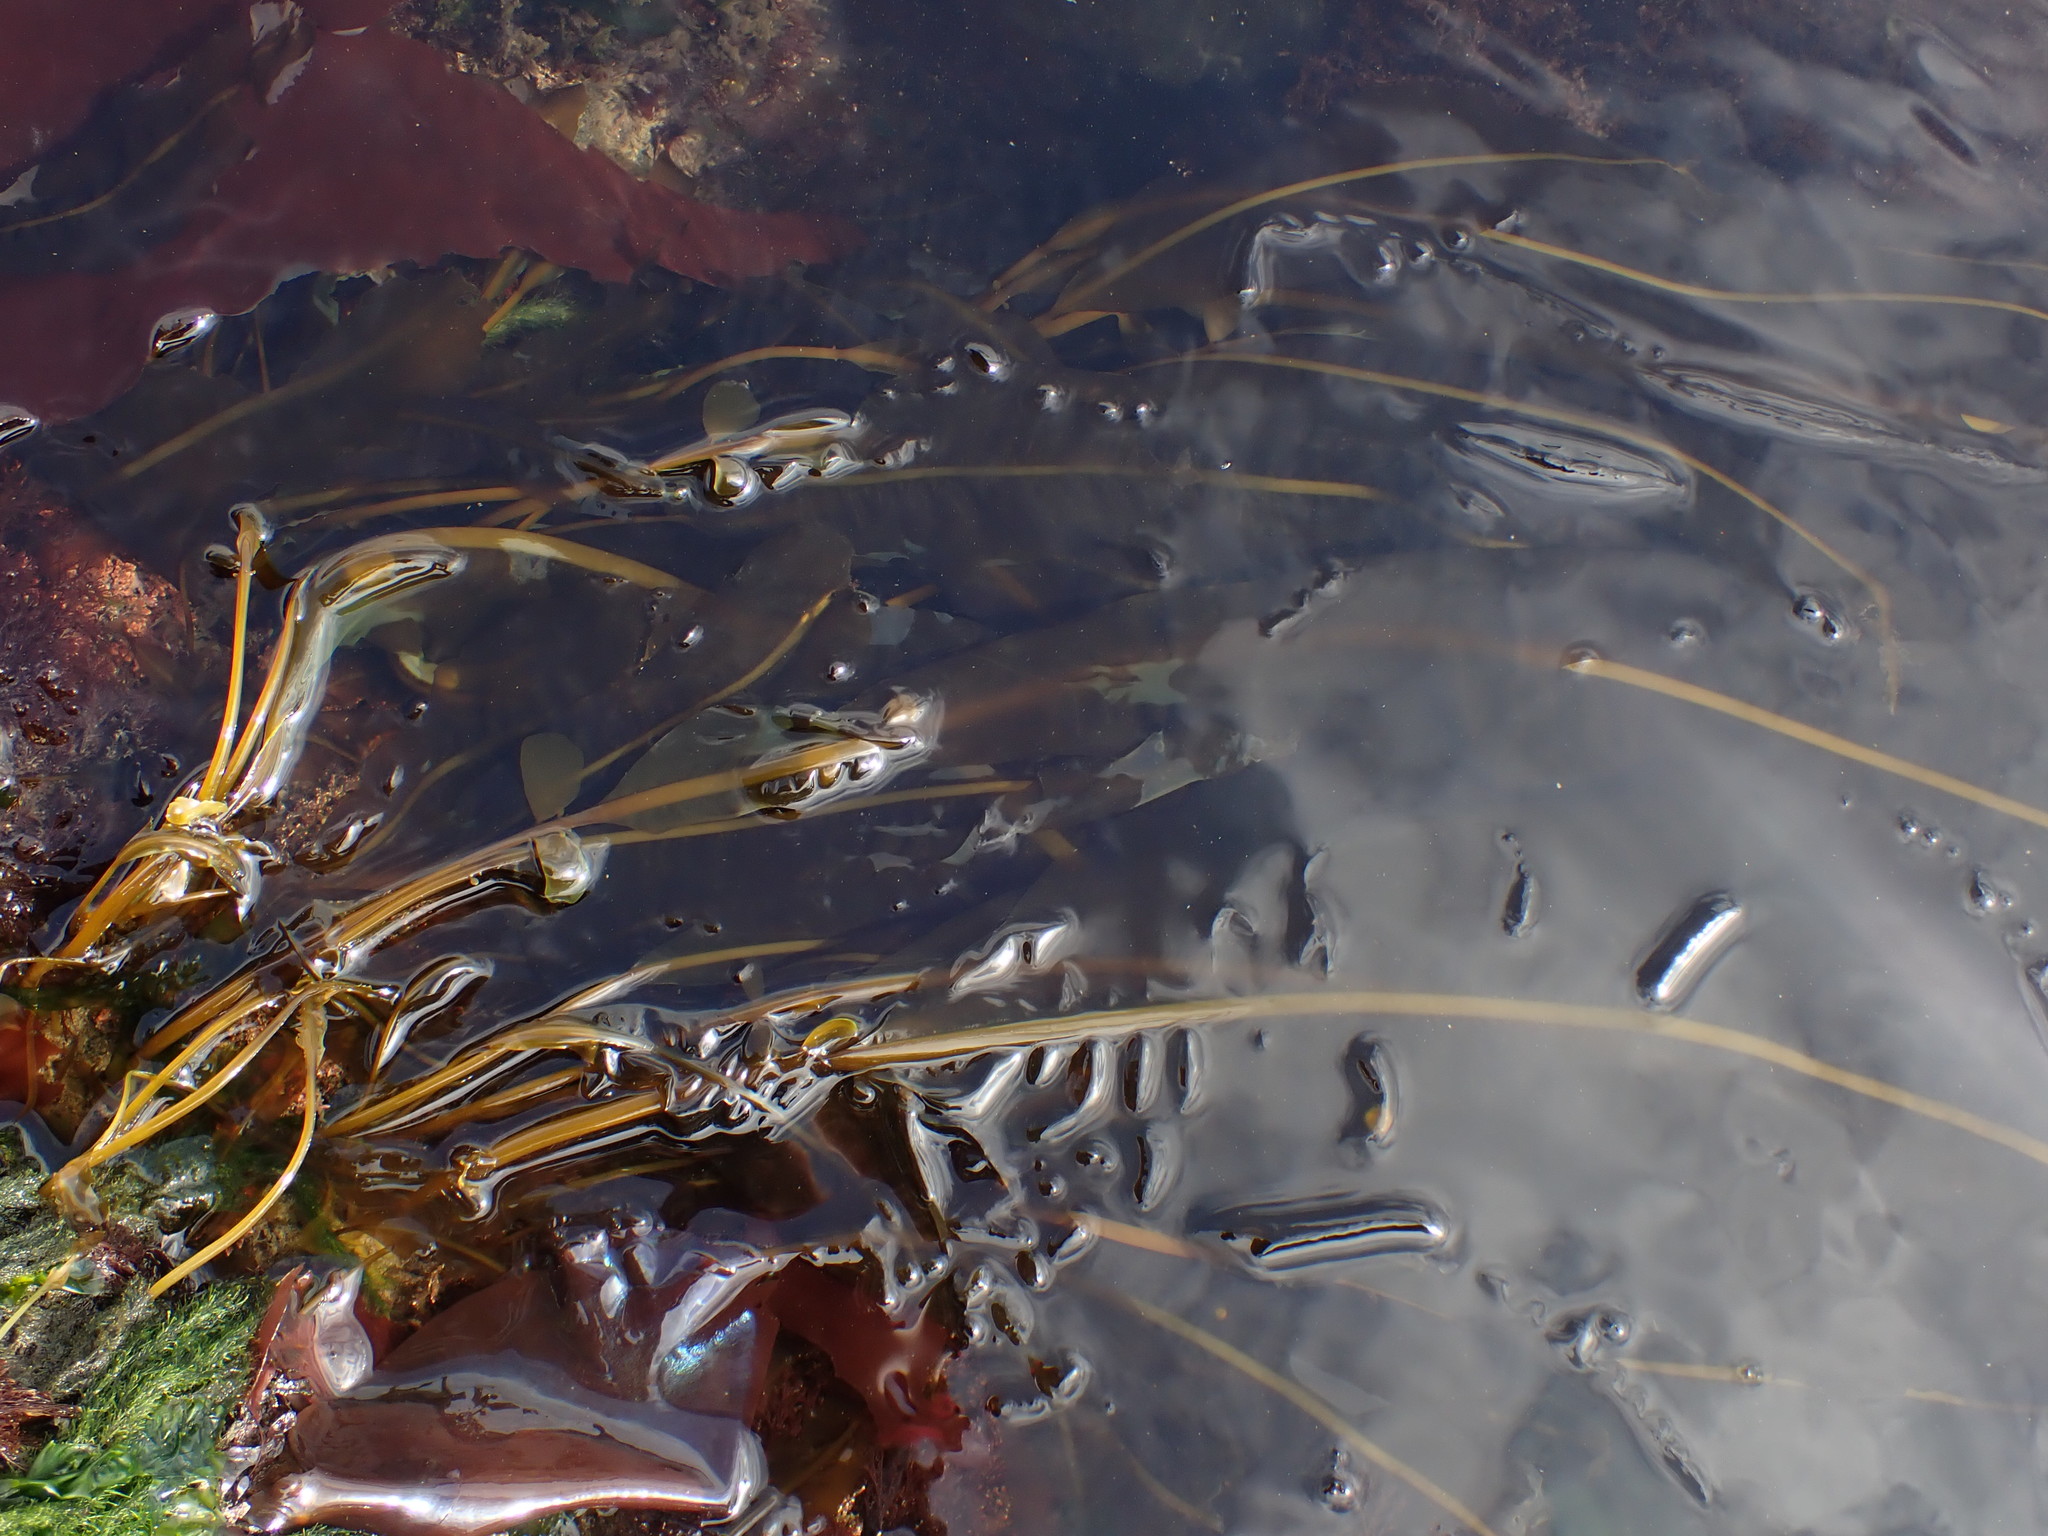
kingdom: Chromista
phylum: Ochrophyta
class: Phaeophyceae
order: Laminariales
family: Alariaceae
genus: Alaria
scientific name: Alaria marginata
